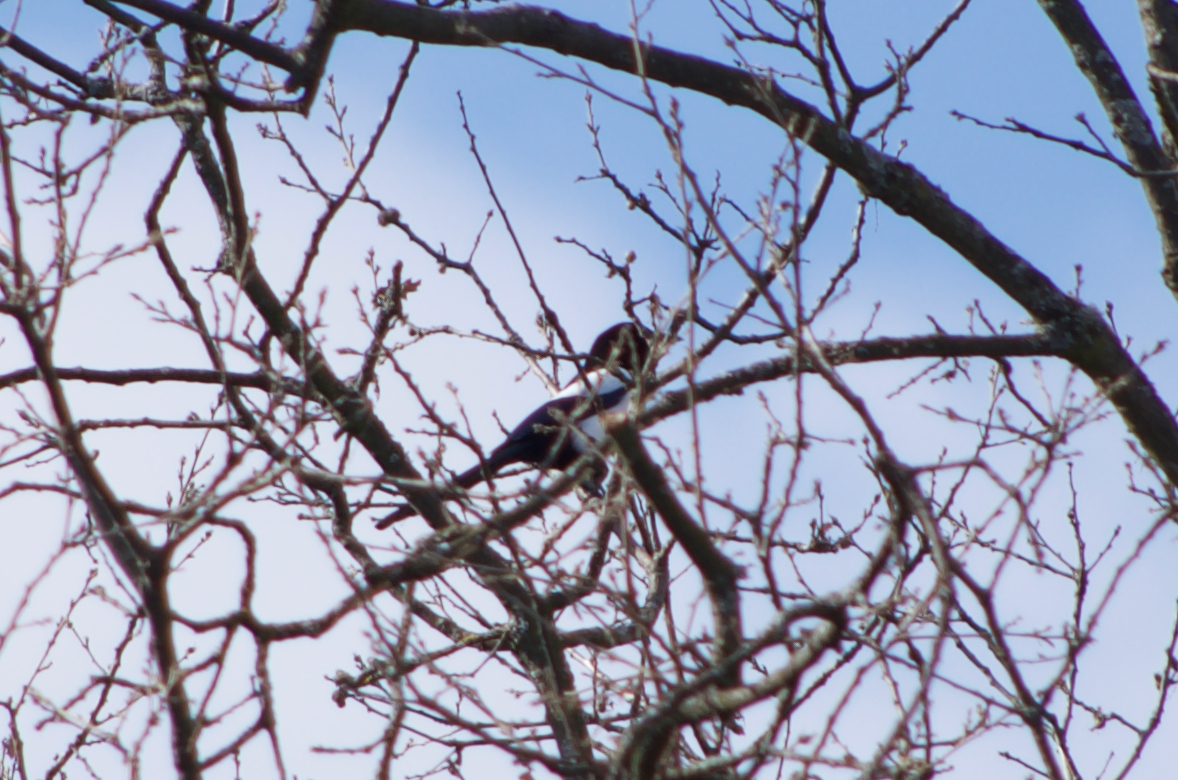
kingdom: Animalia
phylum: Chordata
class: Aves
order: Passeriformes
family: Corvidae
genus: Pica
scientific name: Pica pica
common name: Eurasian magpie
